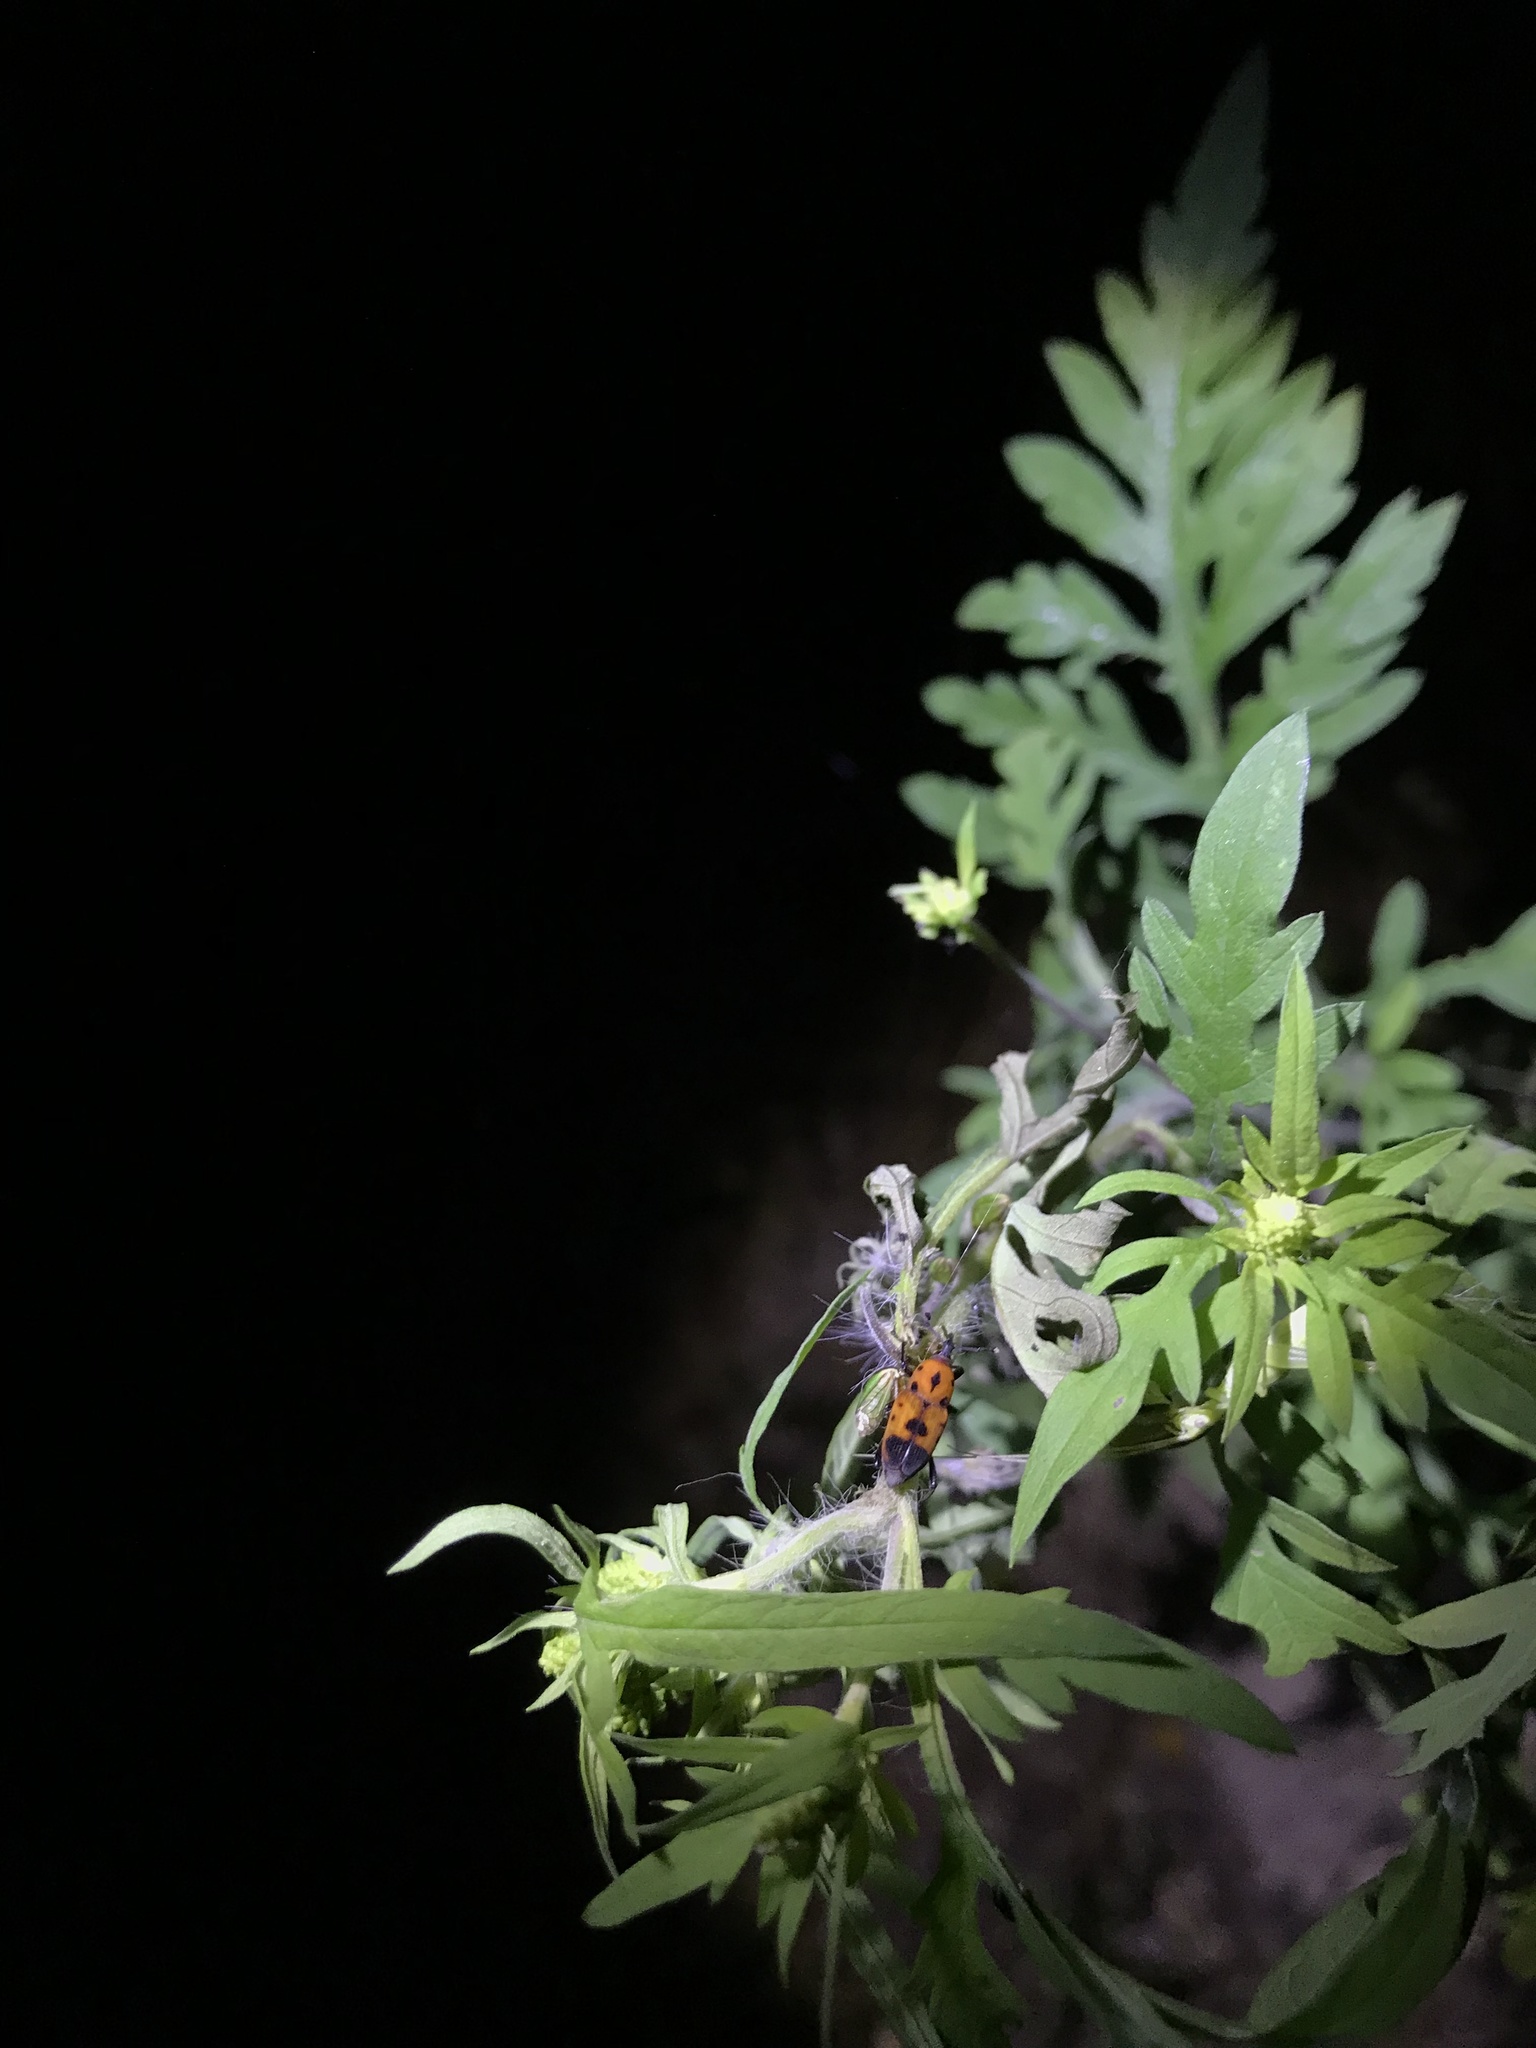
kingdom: Animalia
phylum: Arthropoda
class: Insecta
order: Coleoptera
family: Dryophthoridae
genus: Rhodobaenus
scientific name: Rhodobaenus quinquepunctatus
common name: Cocklebur weevil
